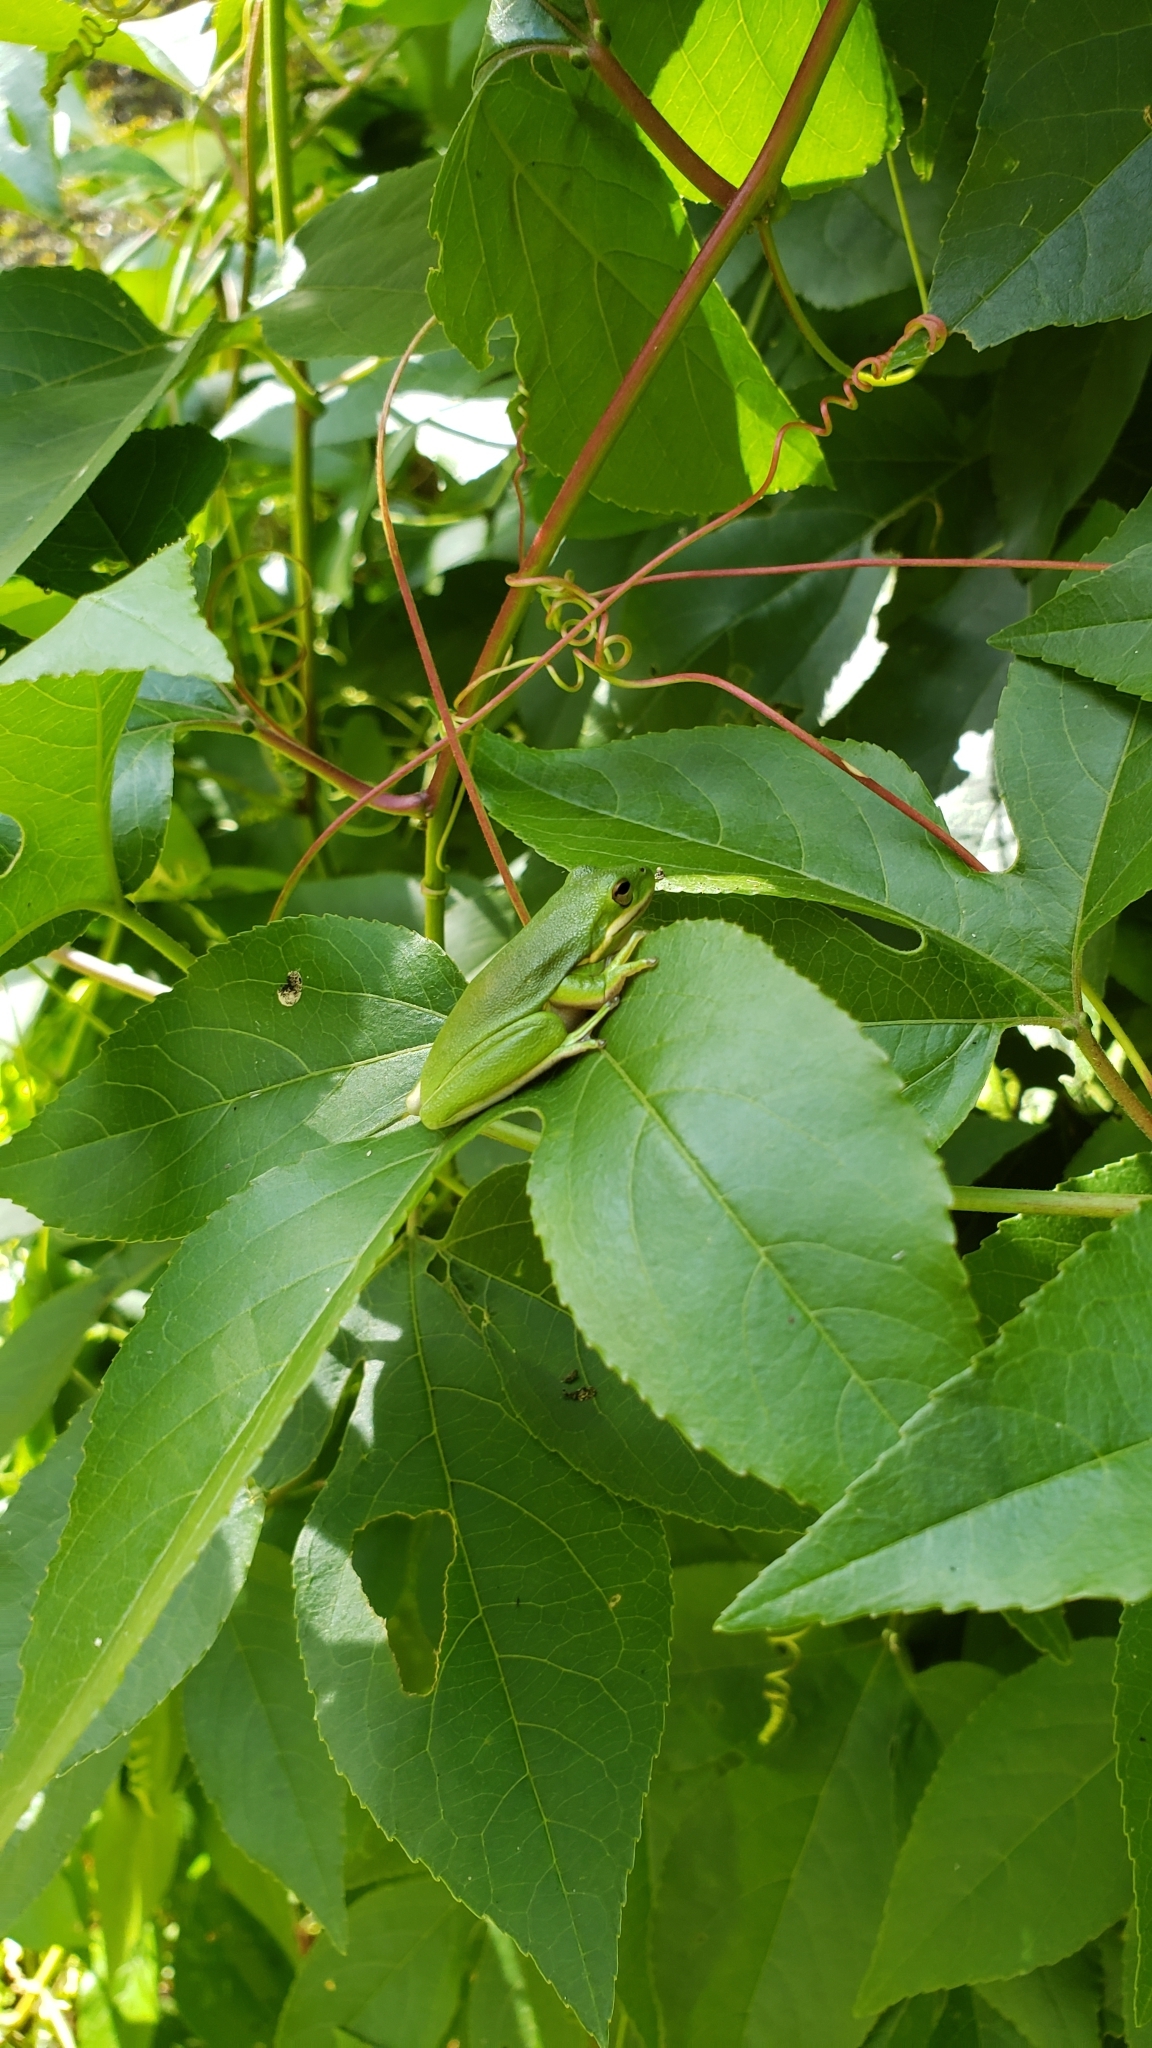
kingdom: Plantae
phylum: Tracheophyta
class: Magnoliopsida
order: Malpighiales
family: Passifloraceae
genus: Passiflora
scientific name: Passiflora incarnata
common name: Apricot-vine
